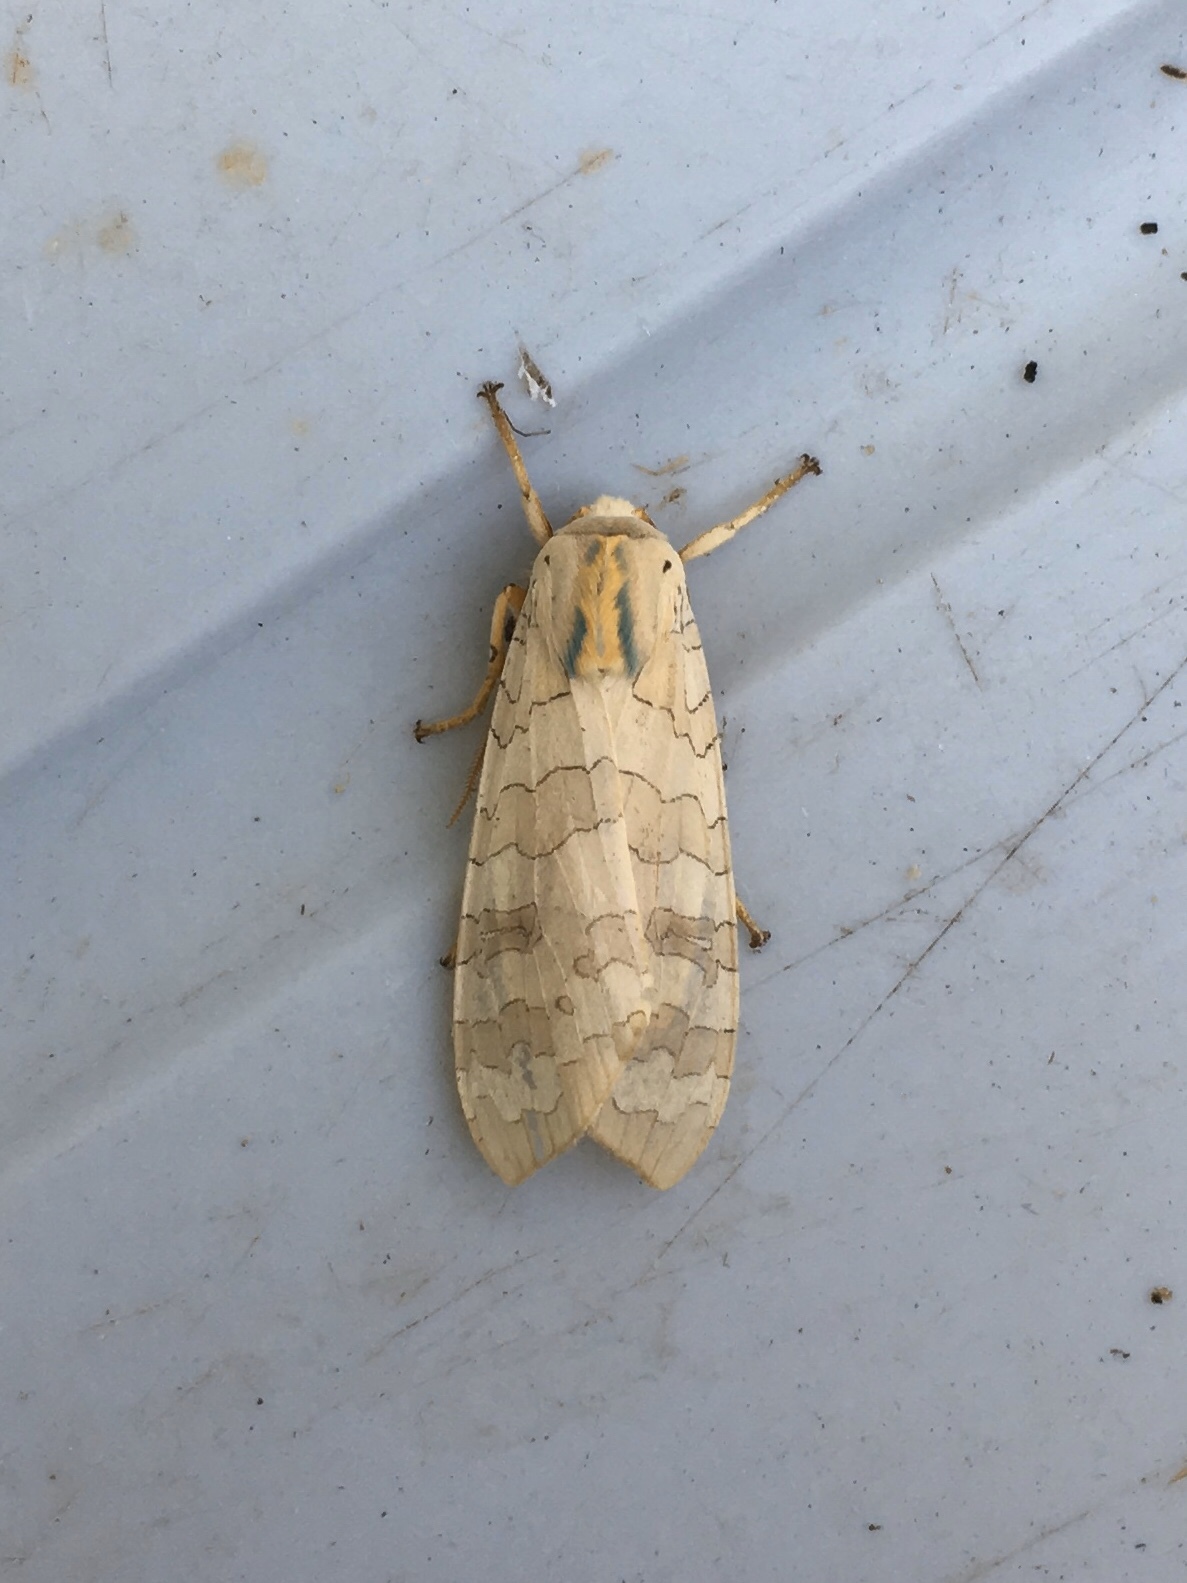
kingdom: Animalia
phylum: Arthropoda
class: Insecta
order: Lepidoptera
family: Erebidae
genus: Halysidota
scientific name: Halysidota
